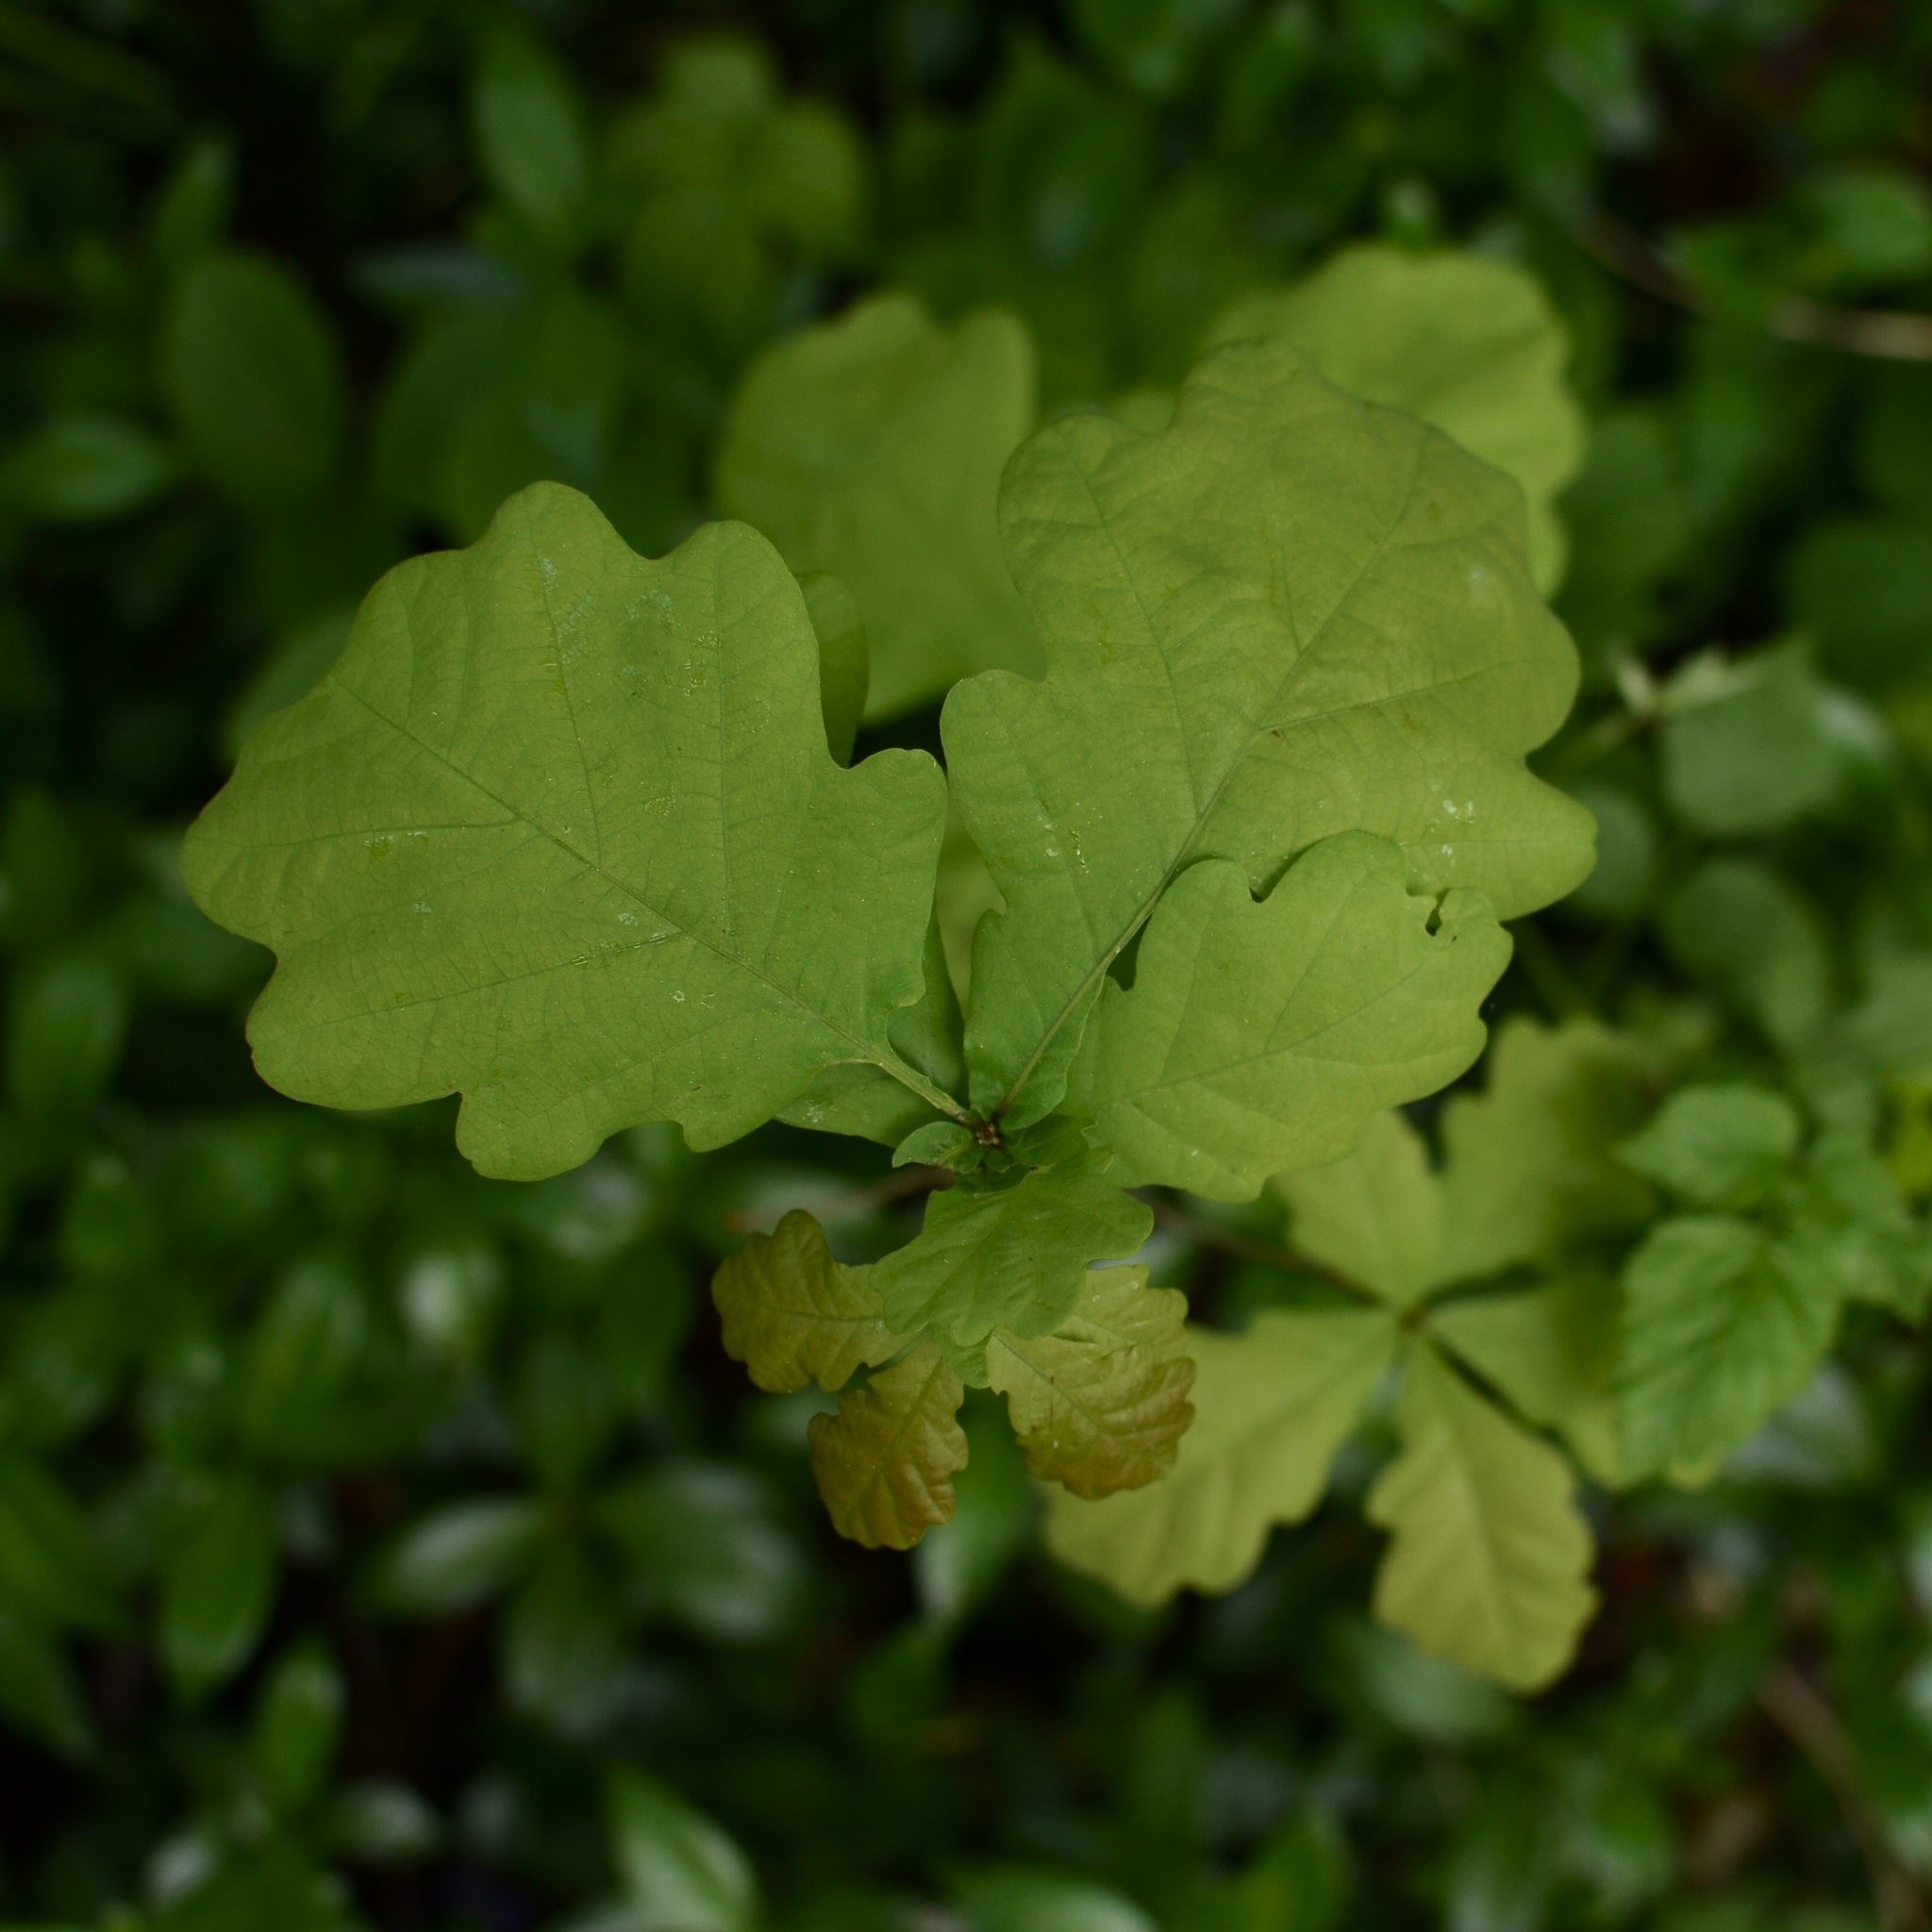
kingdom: Plantae
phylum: Tracheophyta
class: Magnoliopsida
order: Fagales
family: Fagaceae
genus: Quercus
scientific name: Quercus robur
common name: Pedunculate oak
